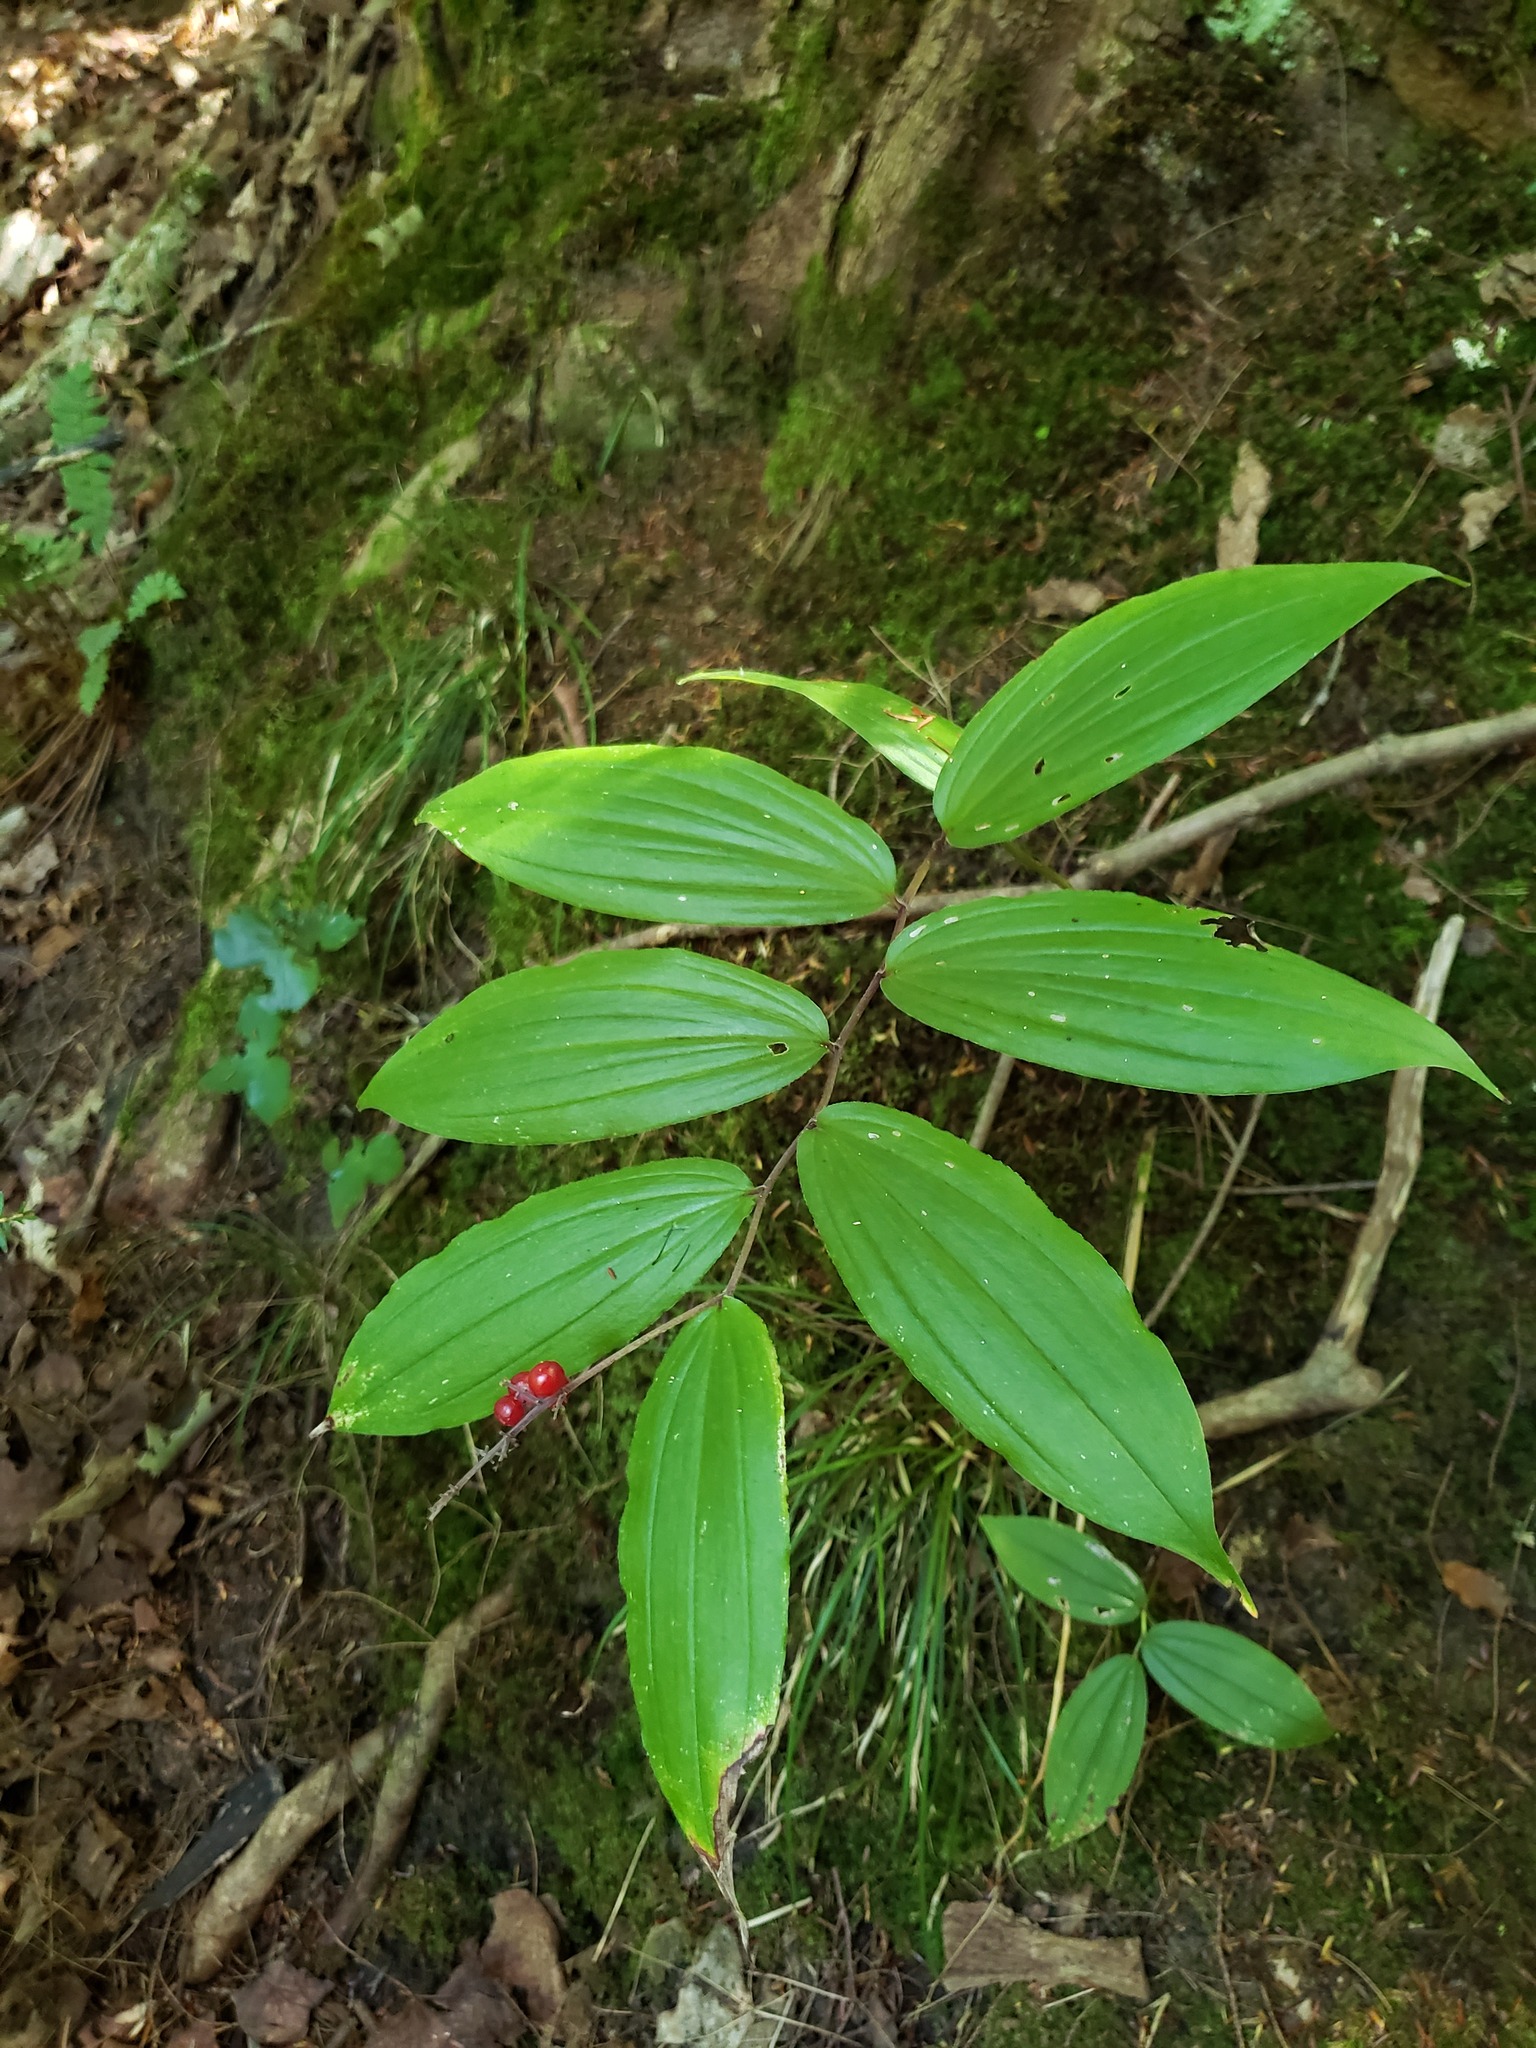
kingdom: Plantae
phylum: Tracheophyta
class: Liliopsida
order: Asparagales
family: Asparagaceae
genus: Maianthemum
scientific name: Maianthemum racemosum
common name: False spikenard
